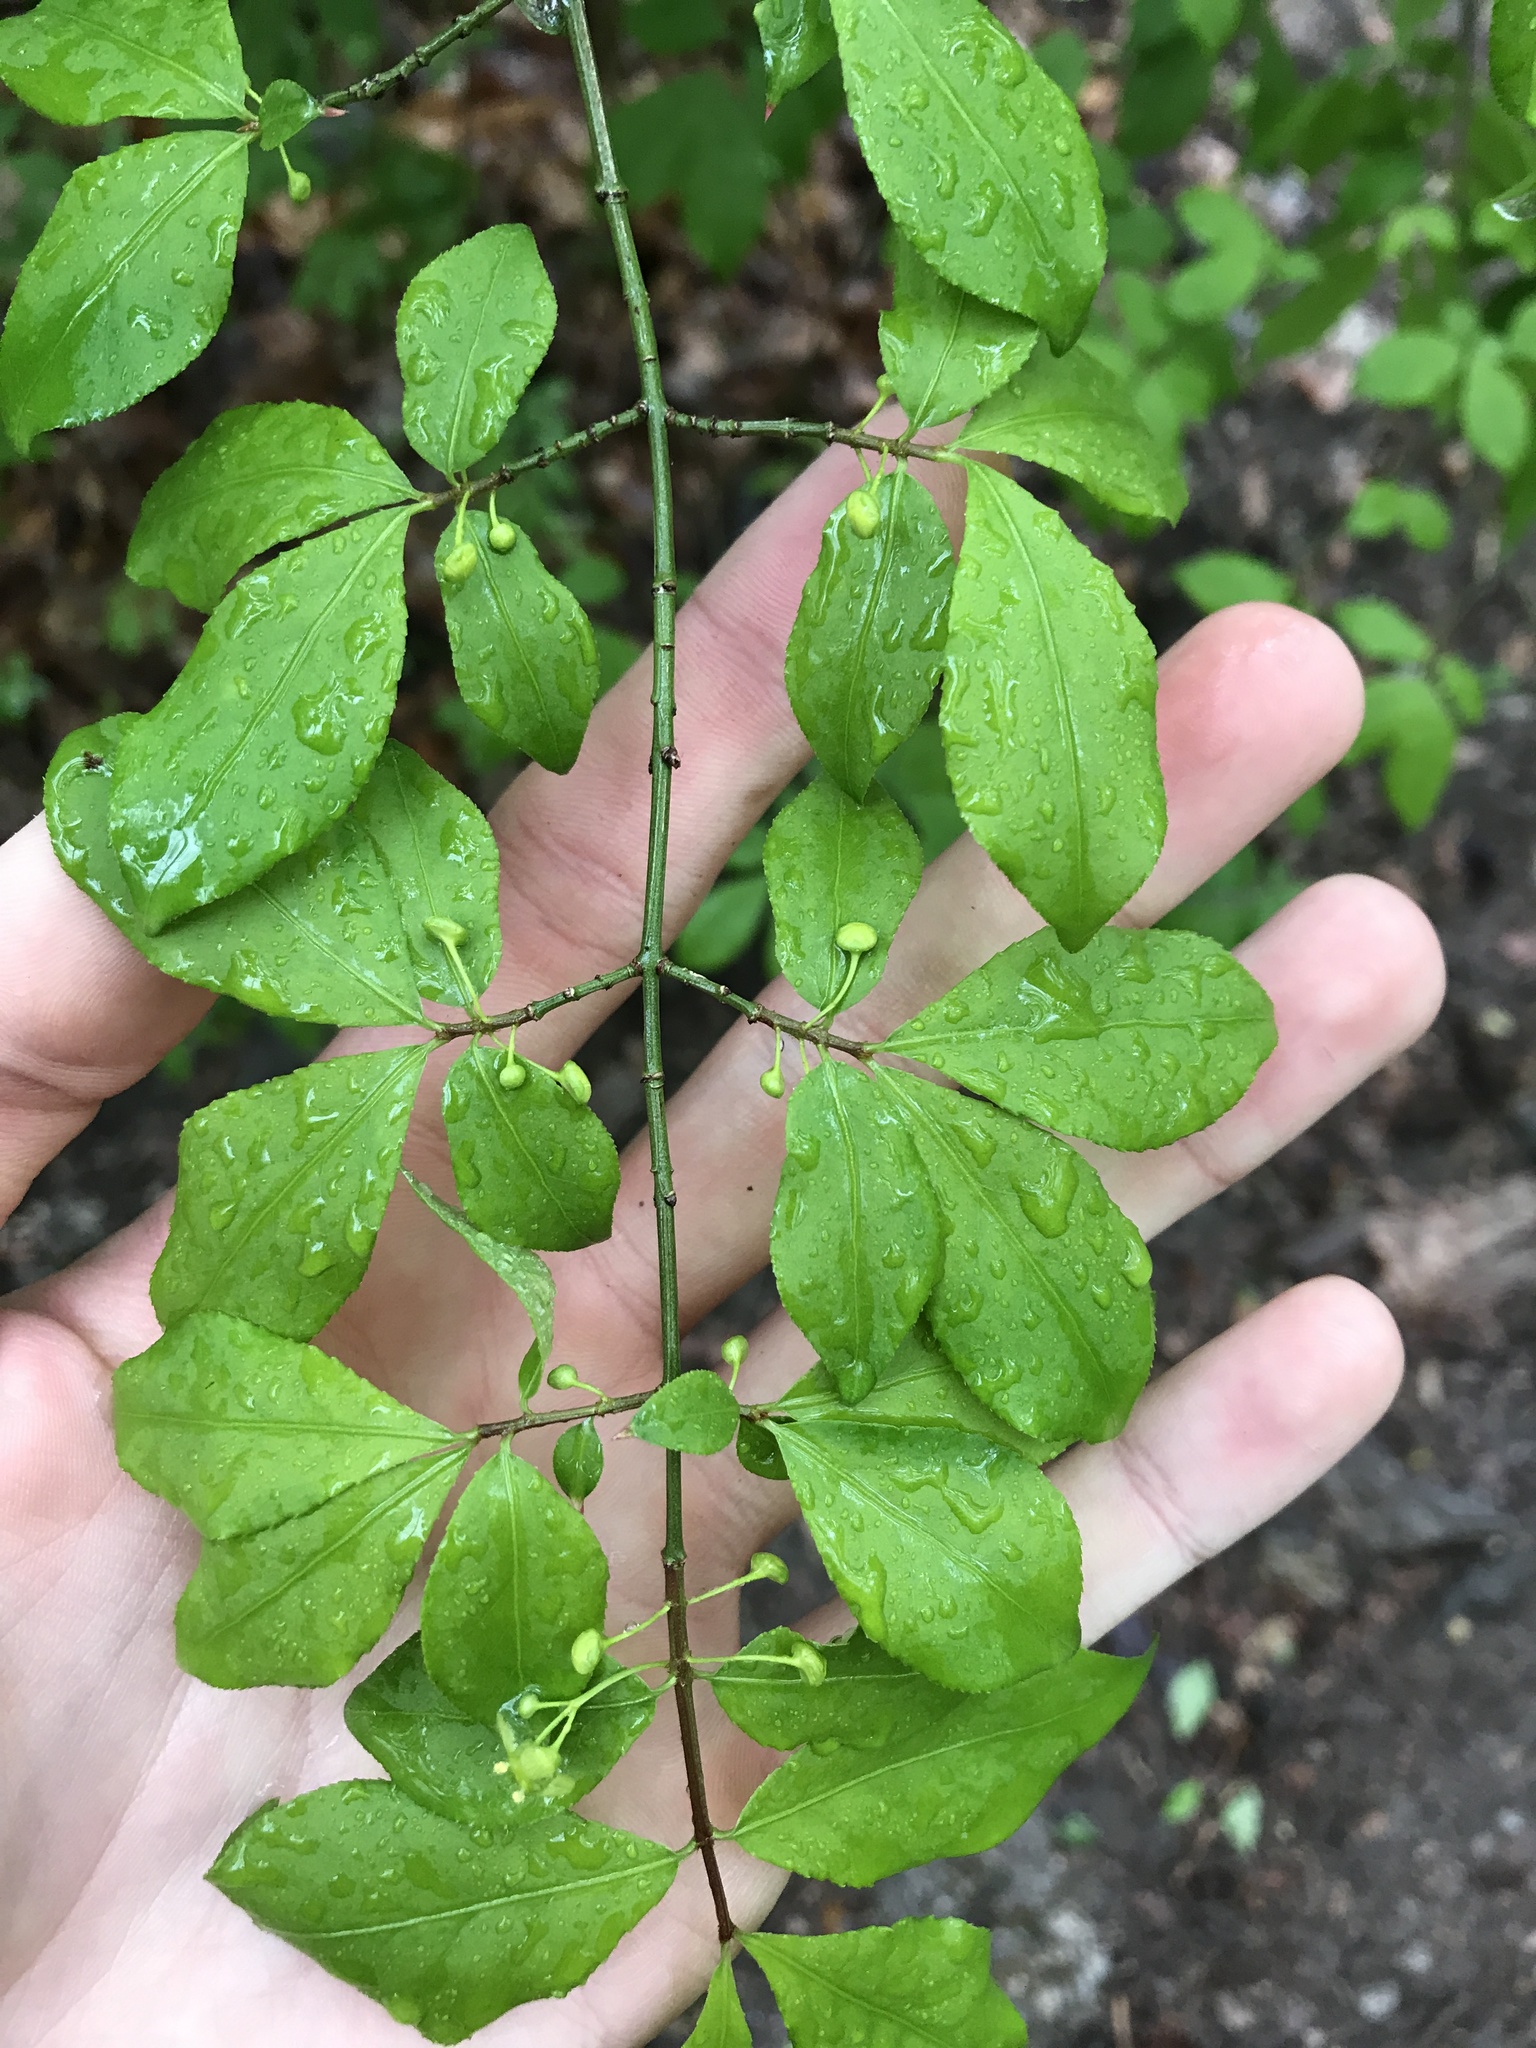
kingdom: Plantae
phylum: Tracheophyta
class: Magnoliopsida
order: Celastrales
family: Celastraceae
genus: Euonymus
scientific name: Euonymus alatus
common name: Winged euonymus
